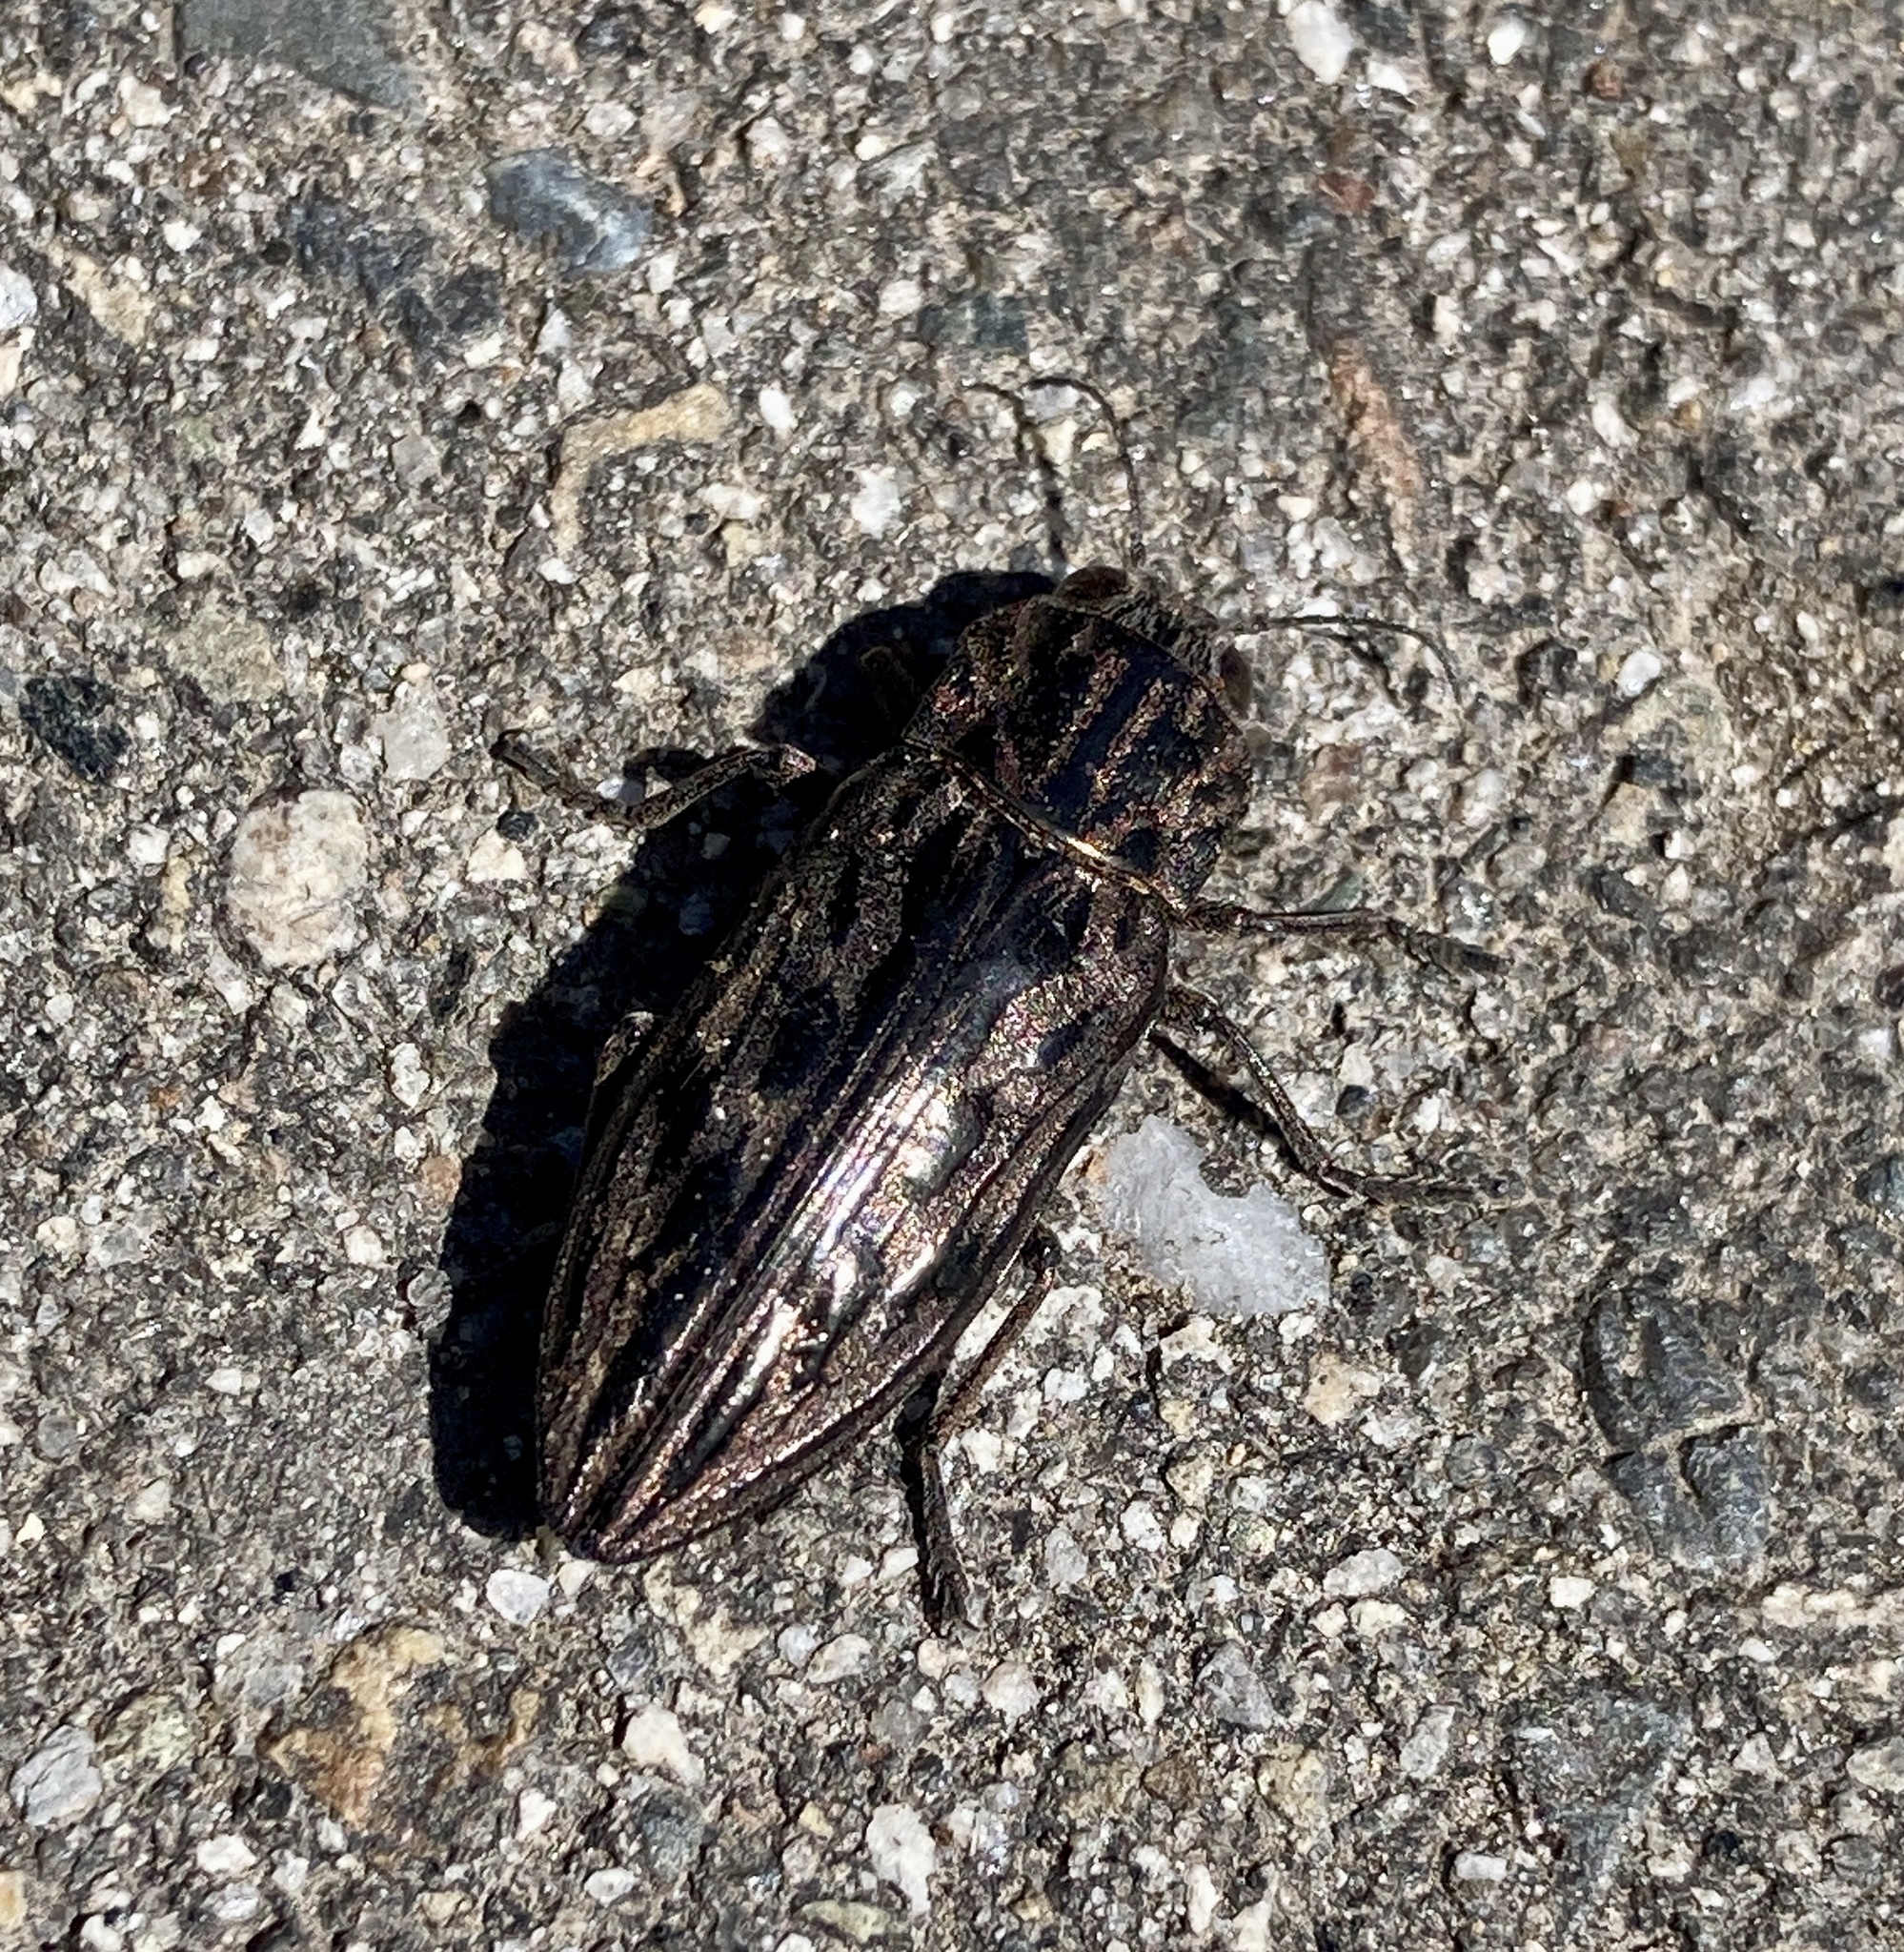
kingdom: Animalia
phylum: Arthropoda
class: Insecta
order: Coleoptera
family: Buprestidae
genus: Chalcophora
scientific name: Chalcophora angulicollis
